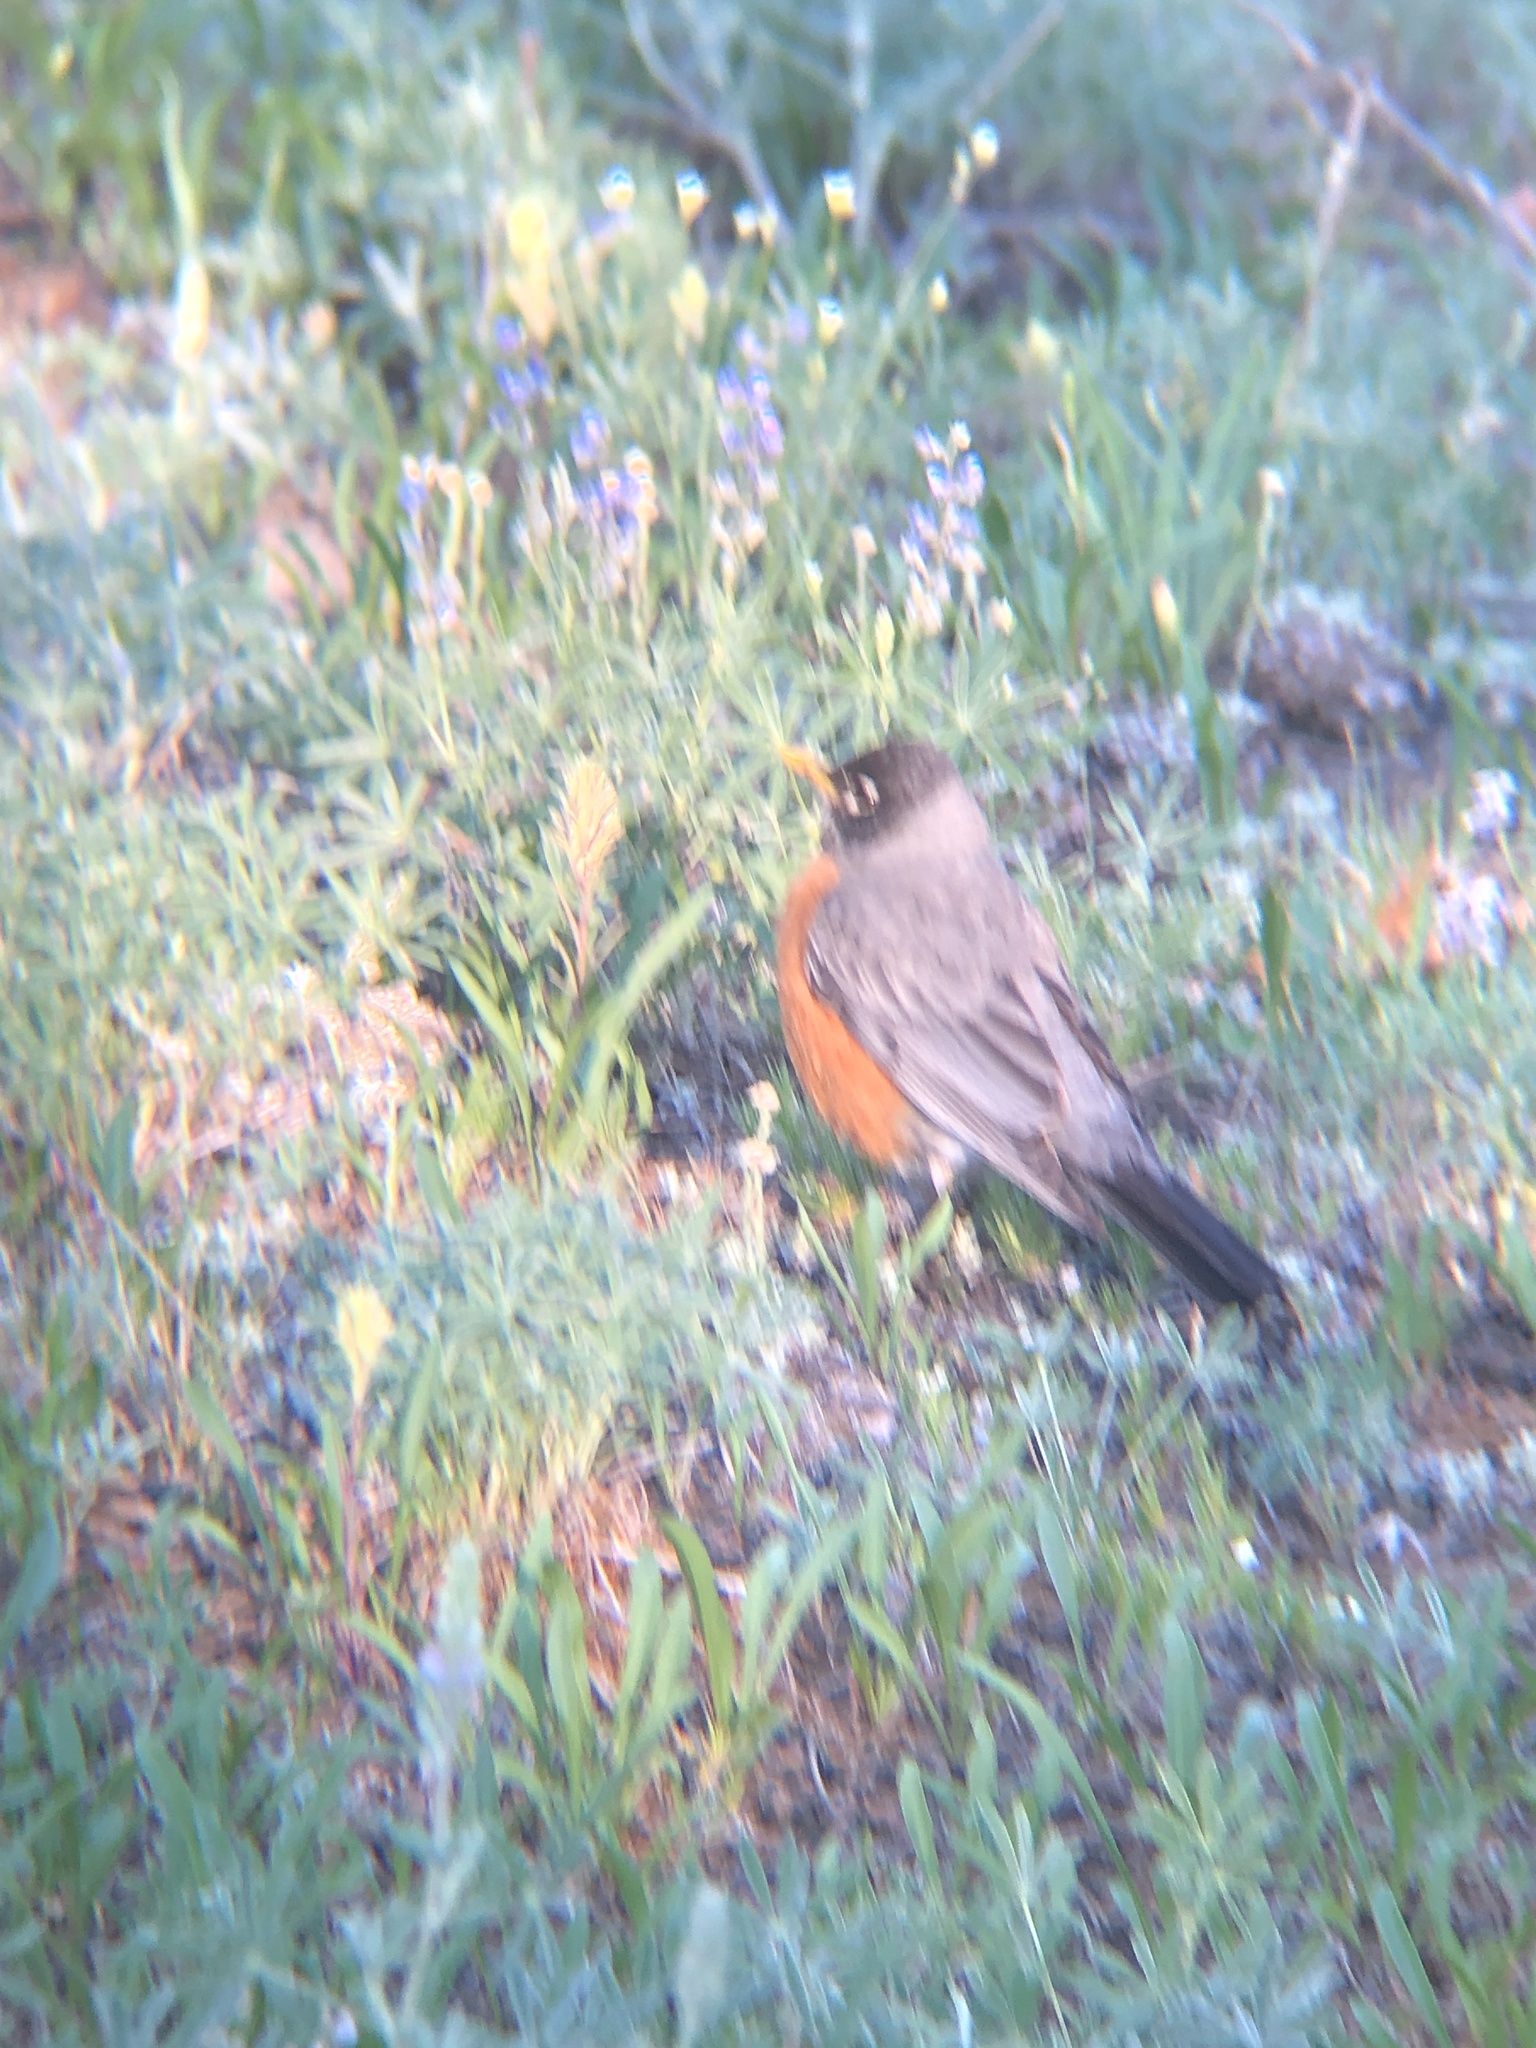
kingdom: Animalia
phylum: Chordata
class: Aves
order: Passeriformes
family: Turdidae
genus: Turdus
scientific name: Turdus migratorius
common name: American robin
